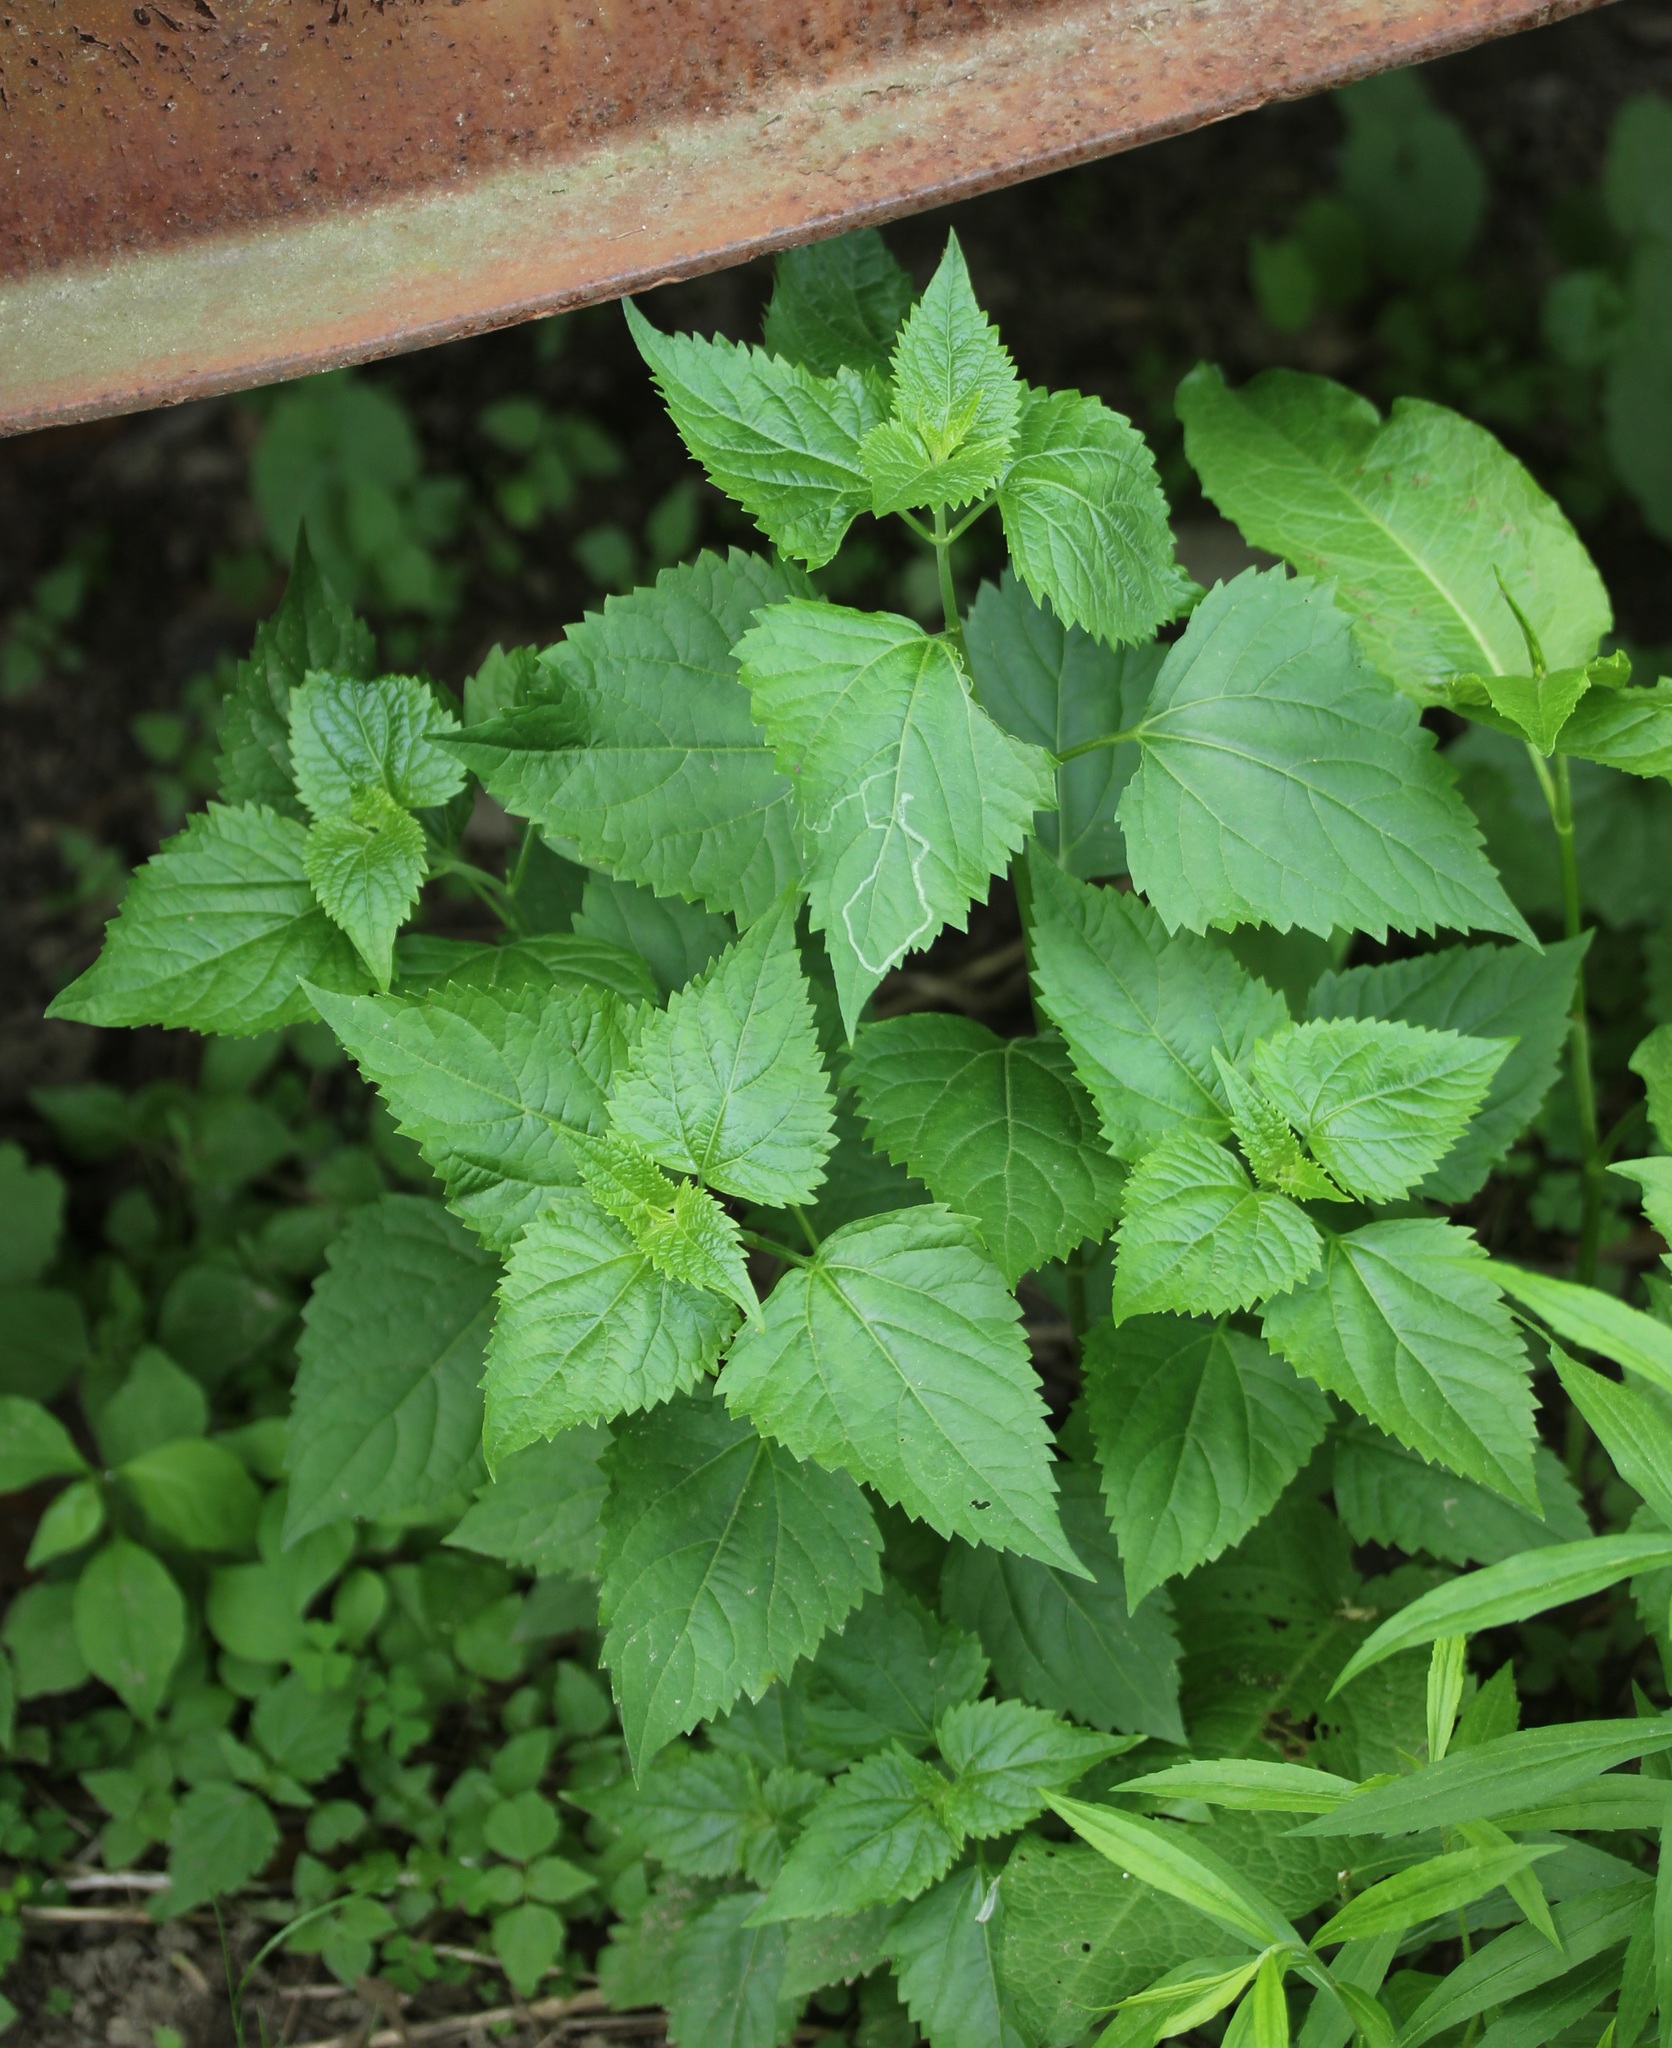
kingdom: Plantae
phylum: Tracheophyta
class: Magnoliopsida
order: Asterales
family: Asteraceae
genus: Ageratina
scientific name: Ageratina altissima
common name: White snakeroot
